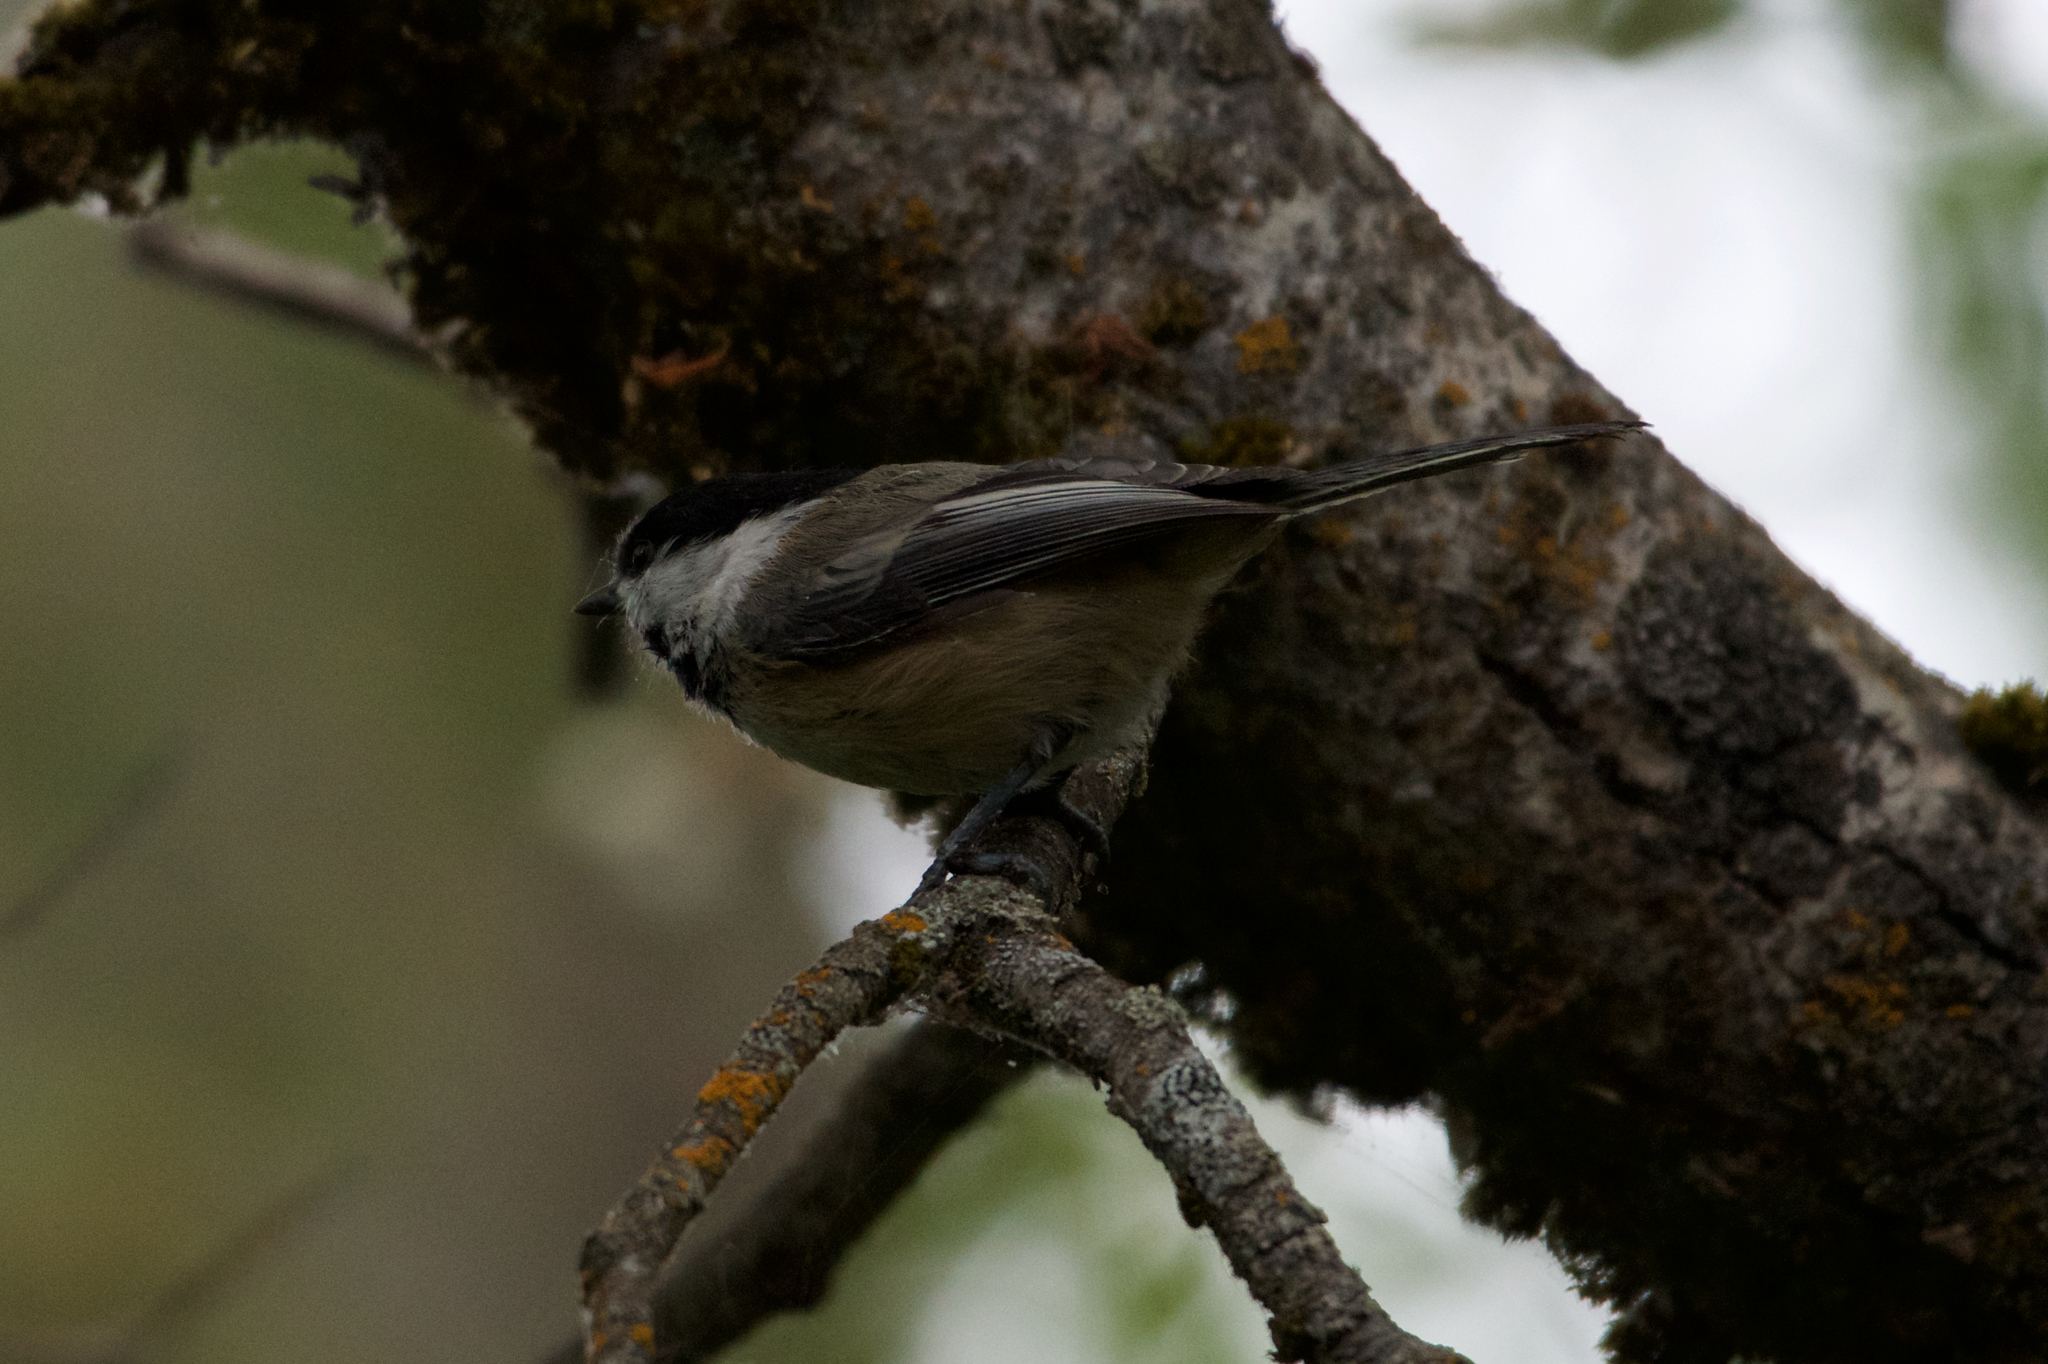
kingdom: Animalia
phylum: Chordata
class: Aves
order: Passeriformes
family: Paridae
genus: Poecile
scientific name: Poecile atricapillus
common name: Black-capped chickadee
